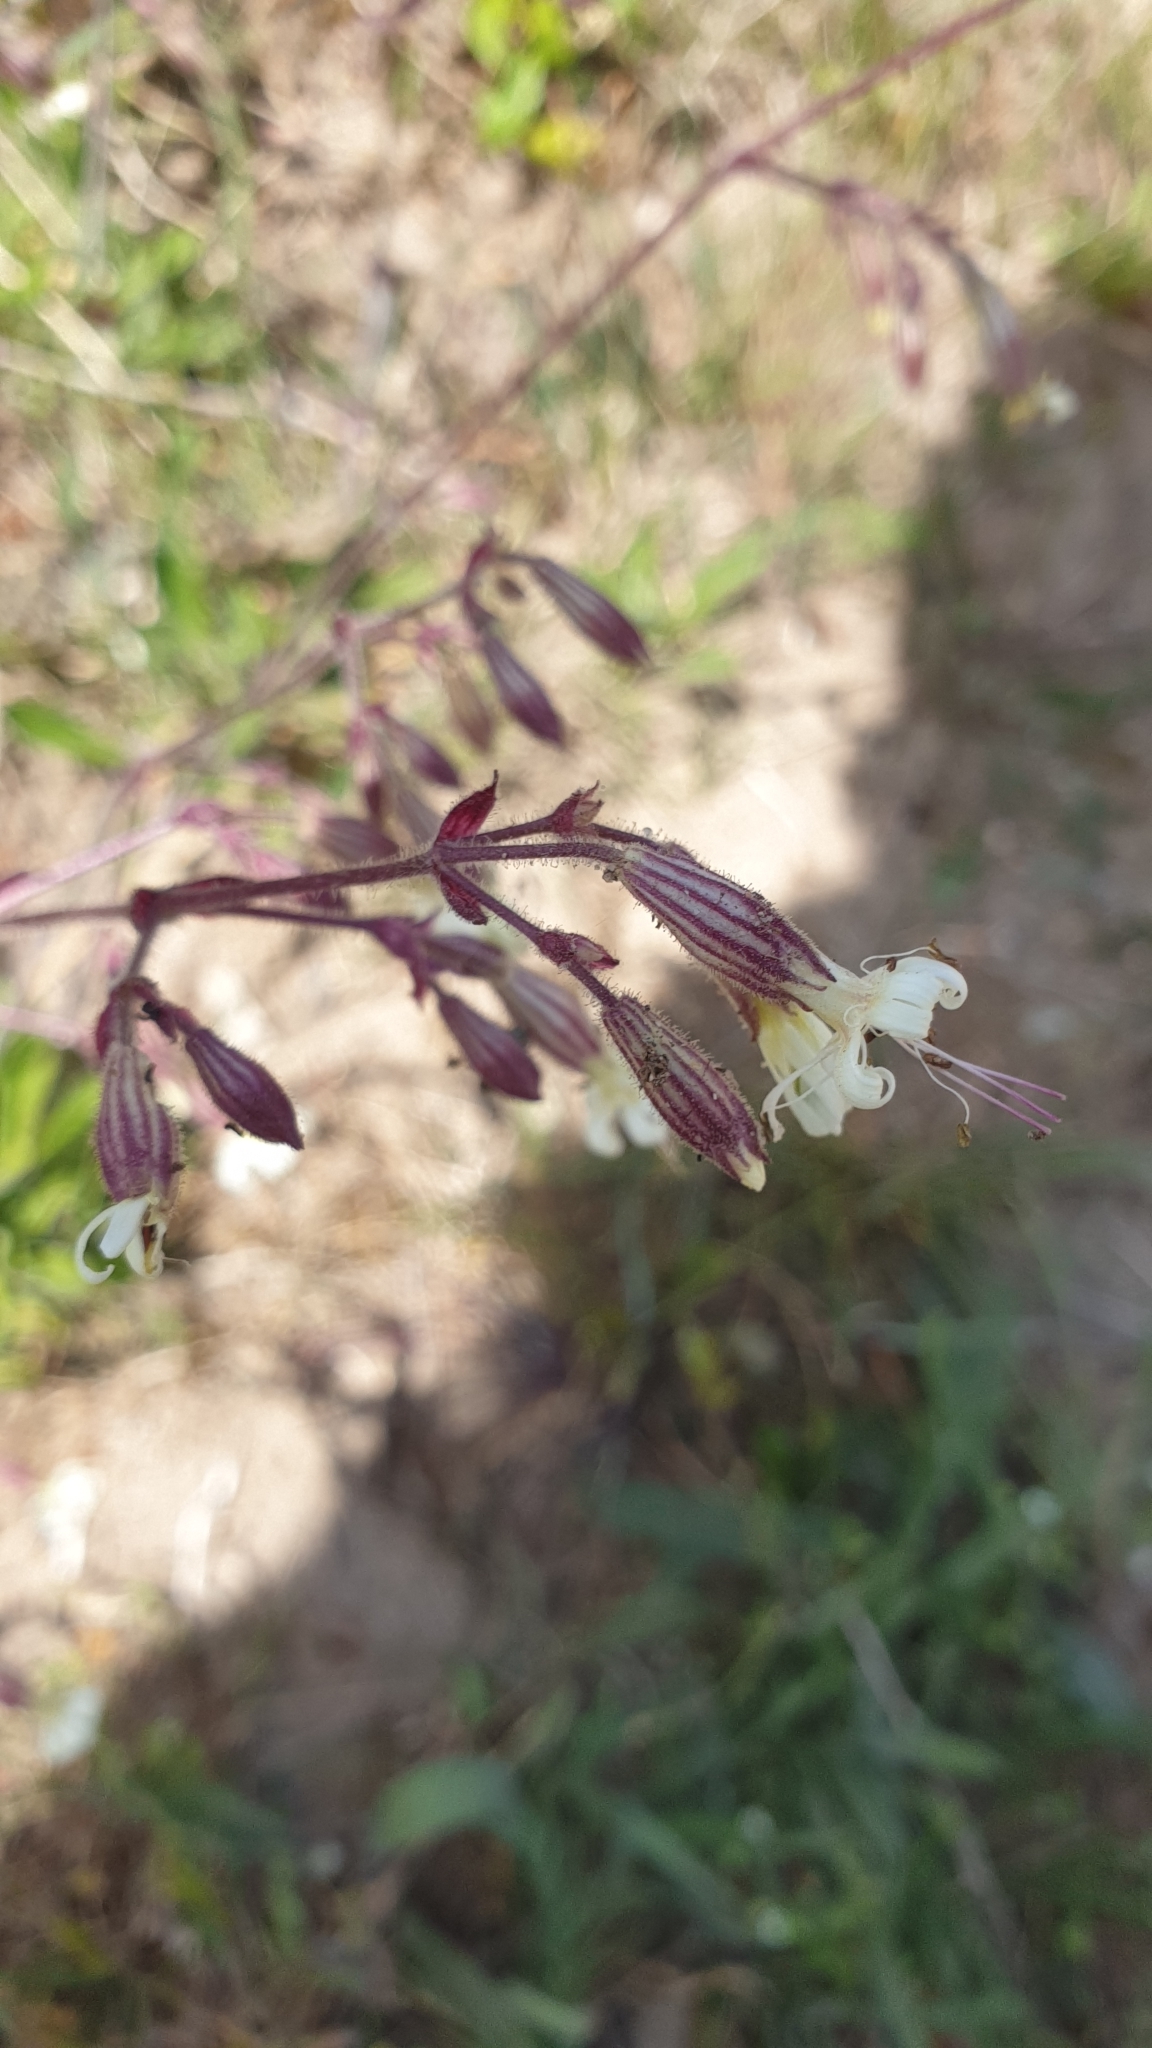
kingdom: Plantae
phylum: Tracheophyta
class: Magnoliopsida
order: Caryophyllales
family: Caryophyllaceae
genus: Silene
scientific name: Silene nutans
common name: Nottingham catchfly
